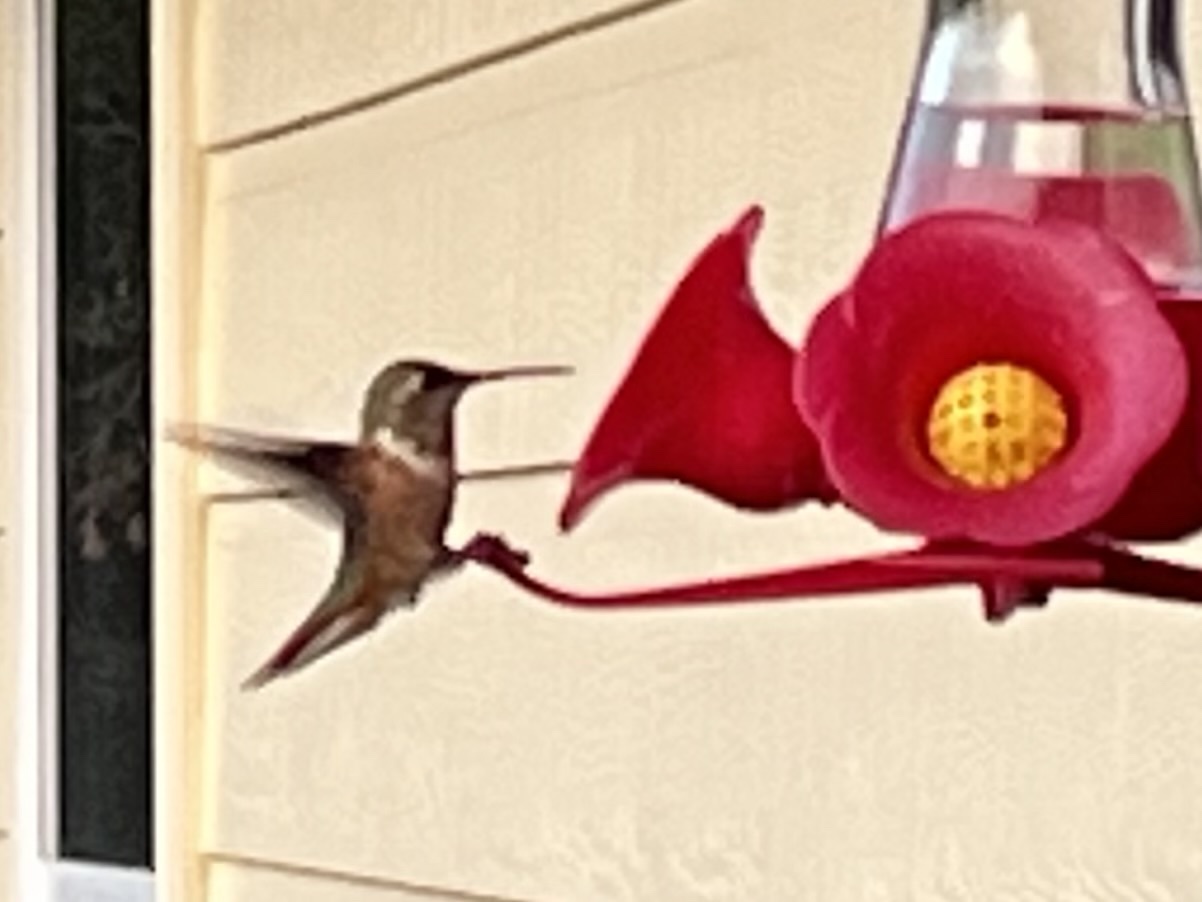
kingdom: Animalia
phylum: Chordata
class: Aves
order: Apodiformes
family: Trochilidae
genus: Archilochus
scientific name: Archilochus colubris
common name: Ruby-throated hummingbird
